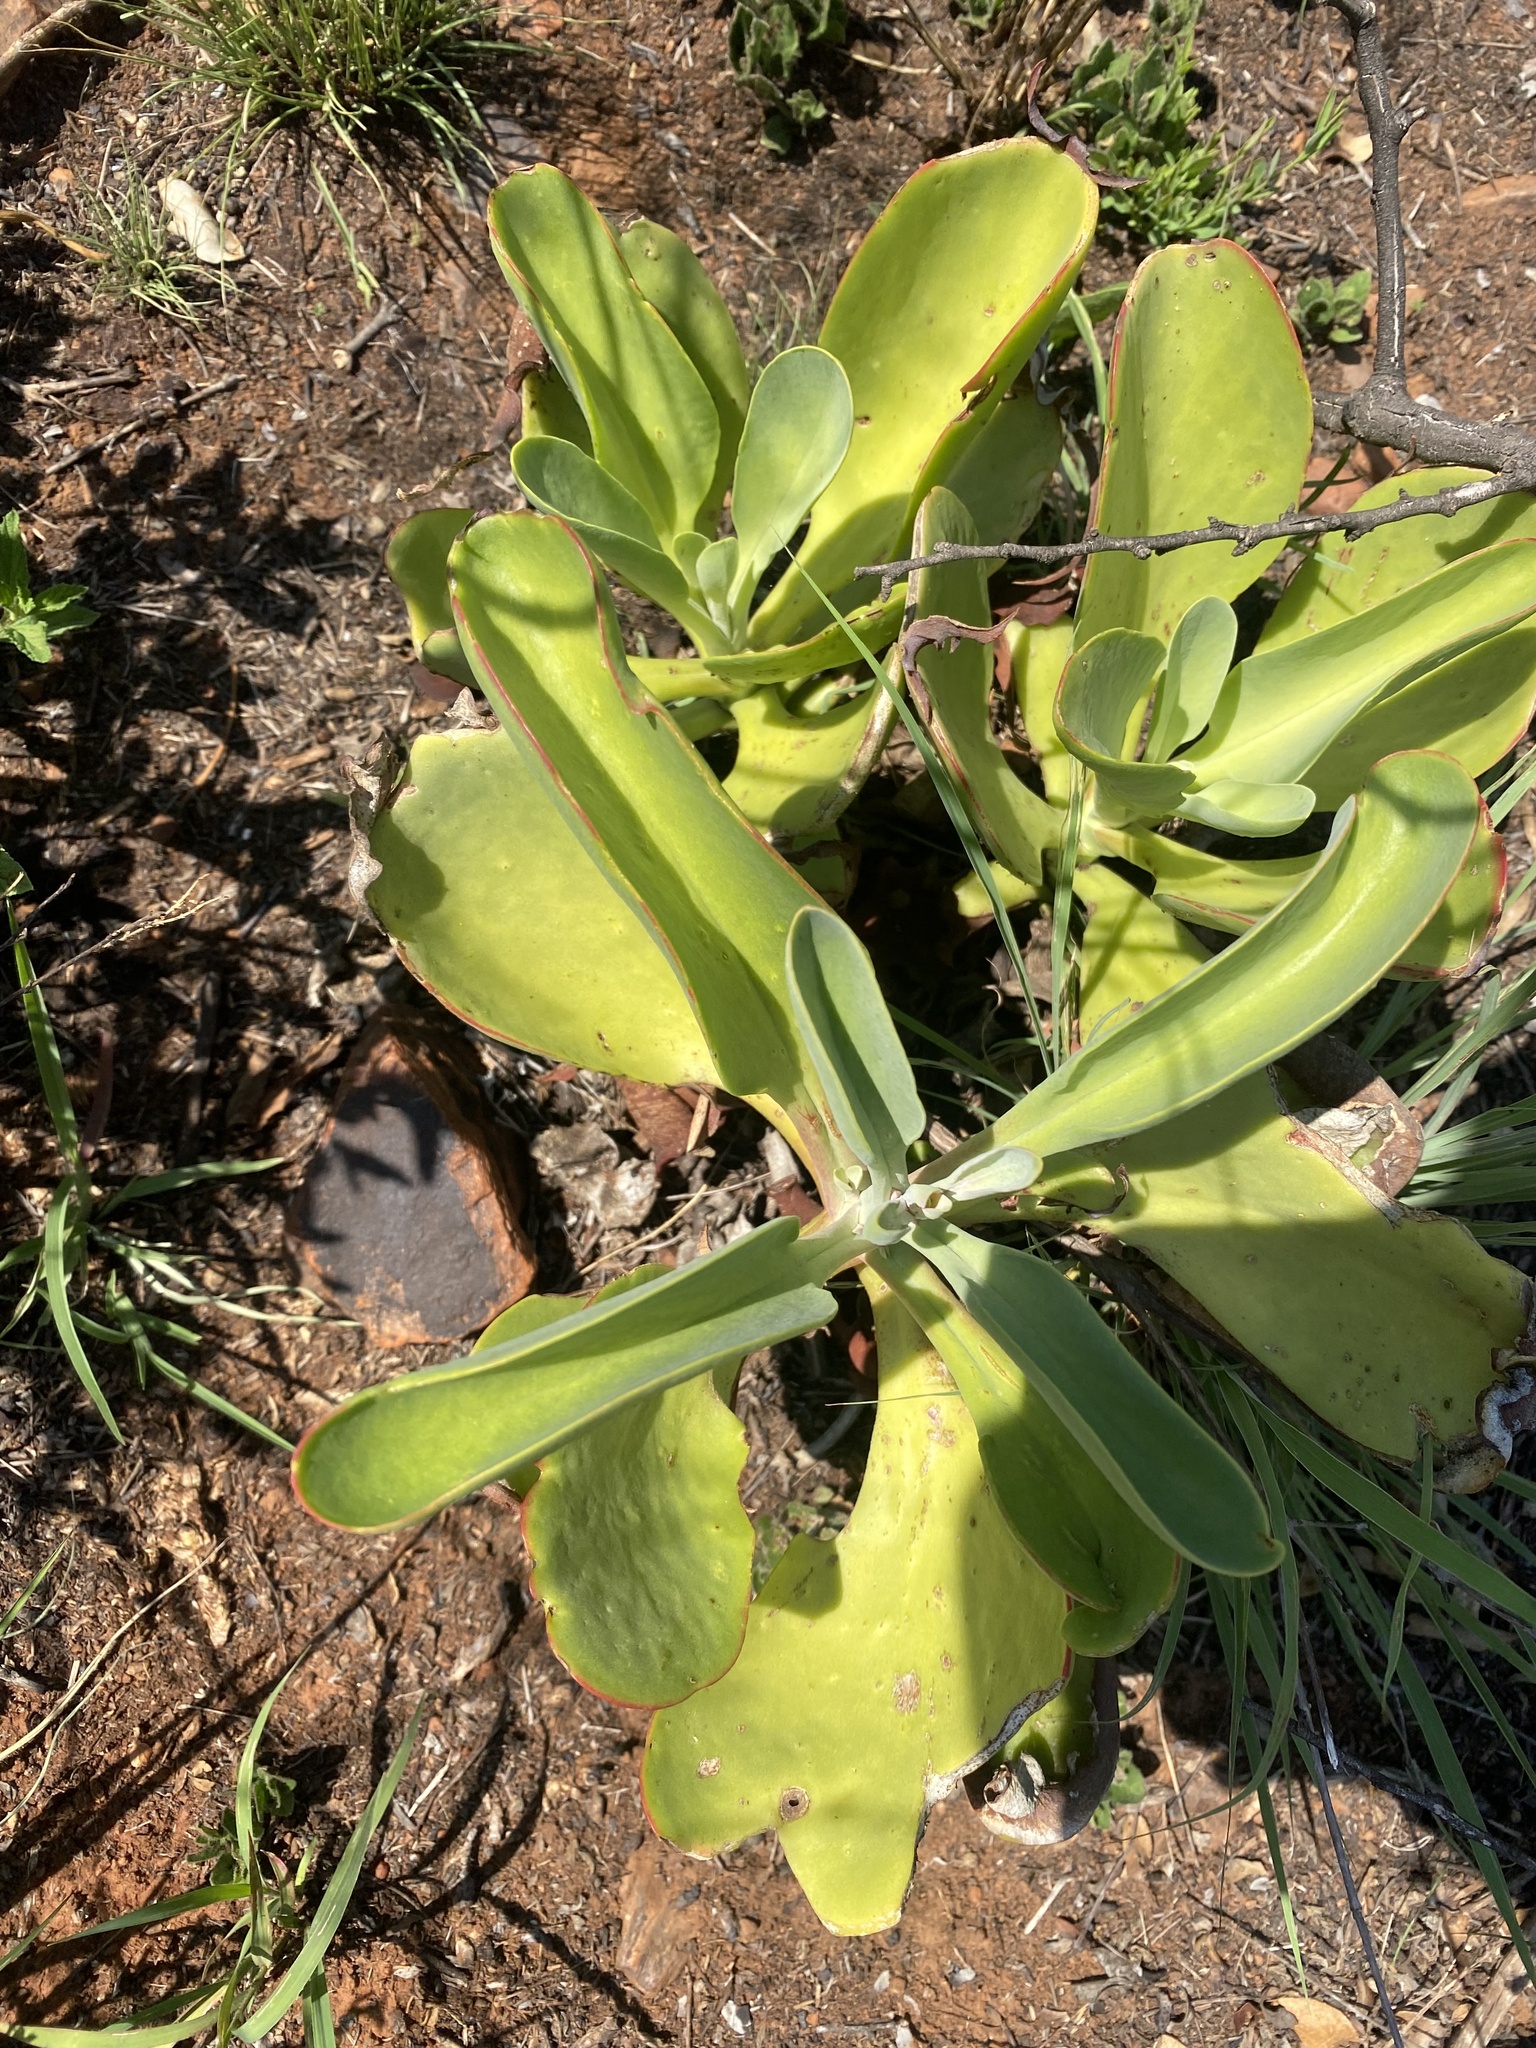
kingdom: Plantae
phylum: Tracheophyta
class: Magnoliopsida
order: Saxifragales
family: Crassulaceae
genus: Kalanchoe
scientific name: Kalanchoe paniculata
